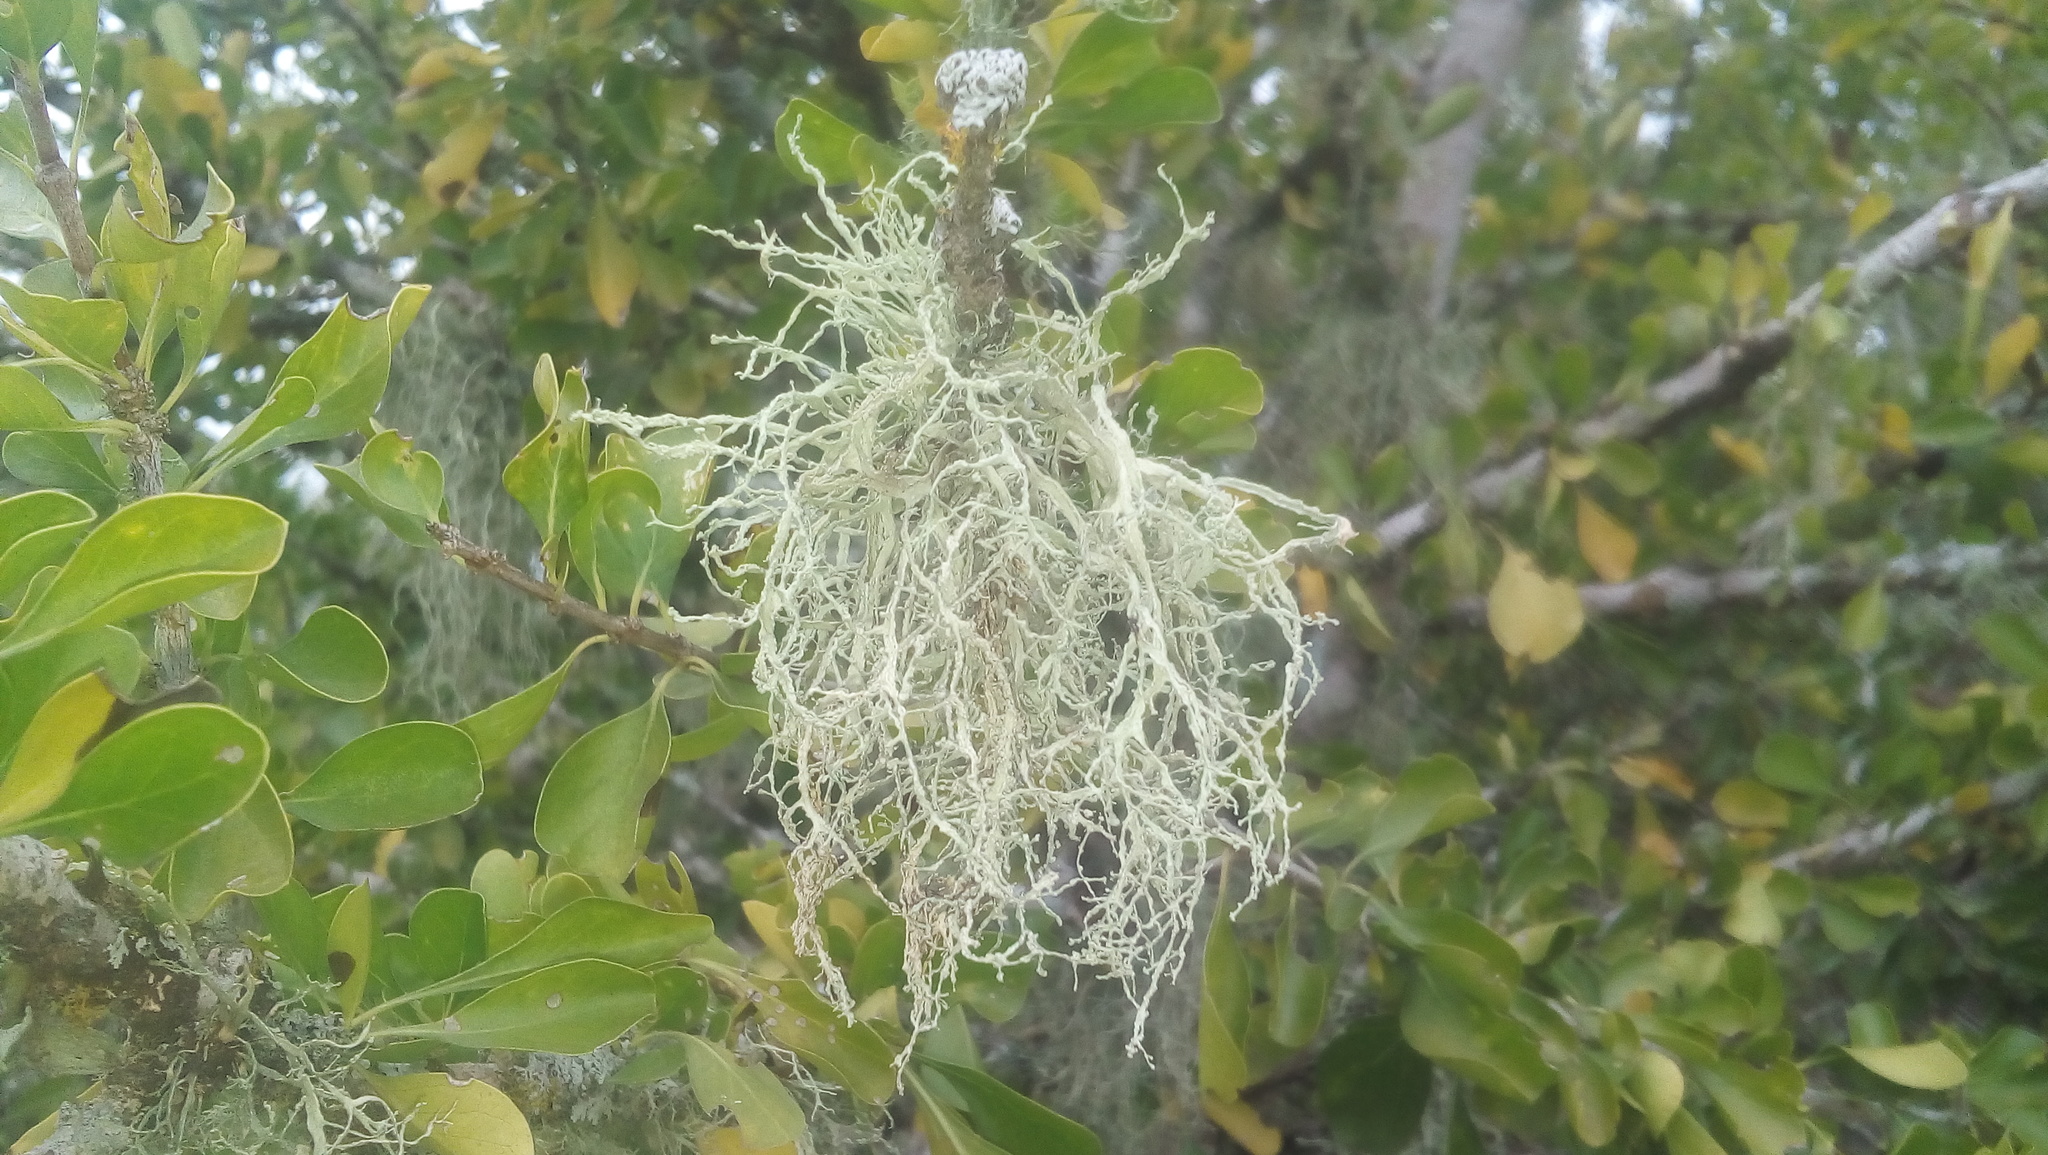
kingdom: Fungi
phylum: Ascomycota
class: Lecanoromycetes
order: Lecanorales
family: Ramalinaceae
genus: Ramalina
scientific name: Ramalina peruviana
